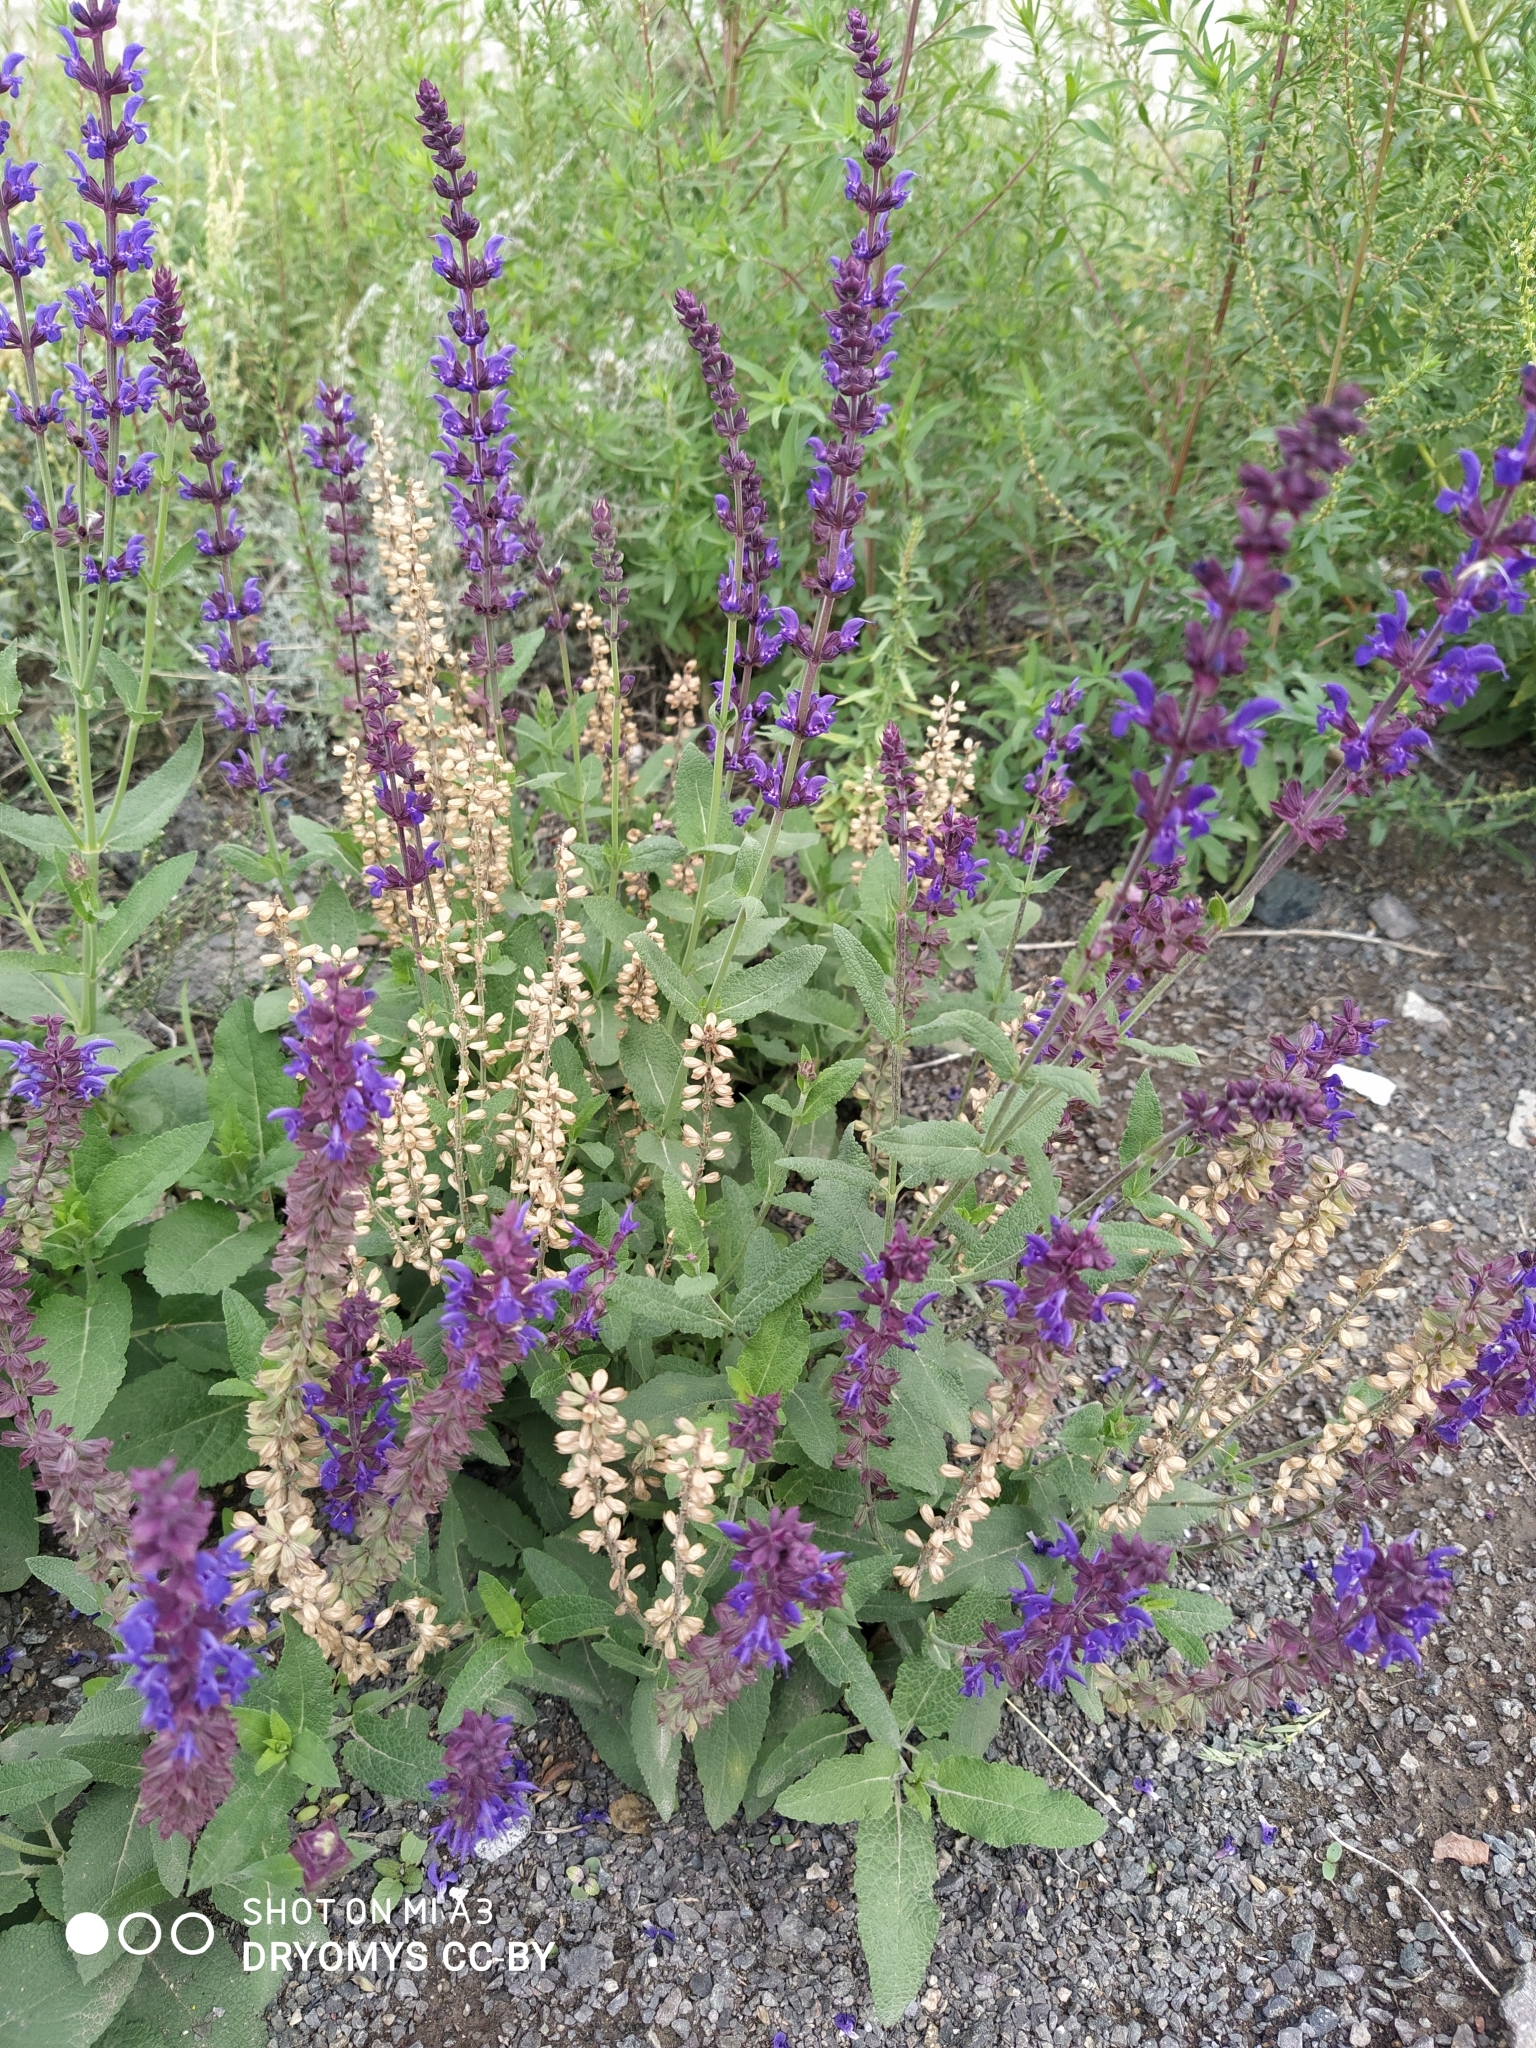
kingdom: Plantae
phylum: Tracheophyta
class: Magnoliopsida
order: Lamiales
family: Lamiaceae
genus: Salvia
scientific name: Salvia deserta
